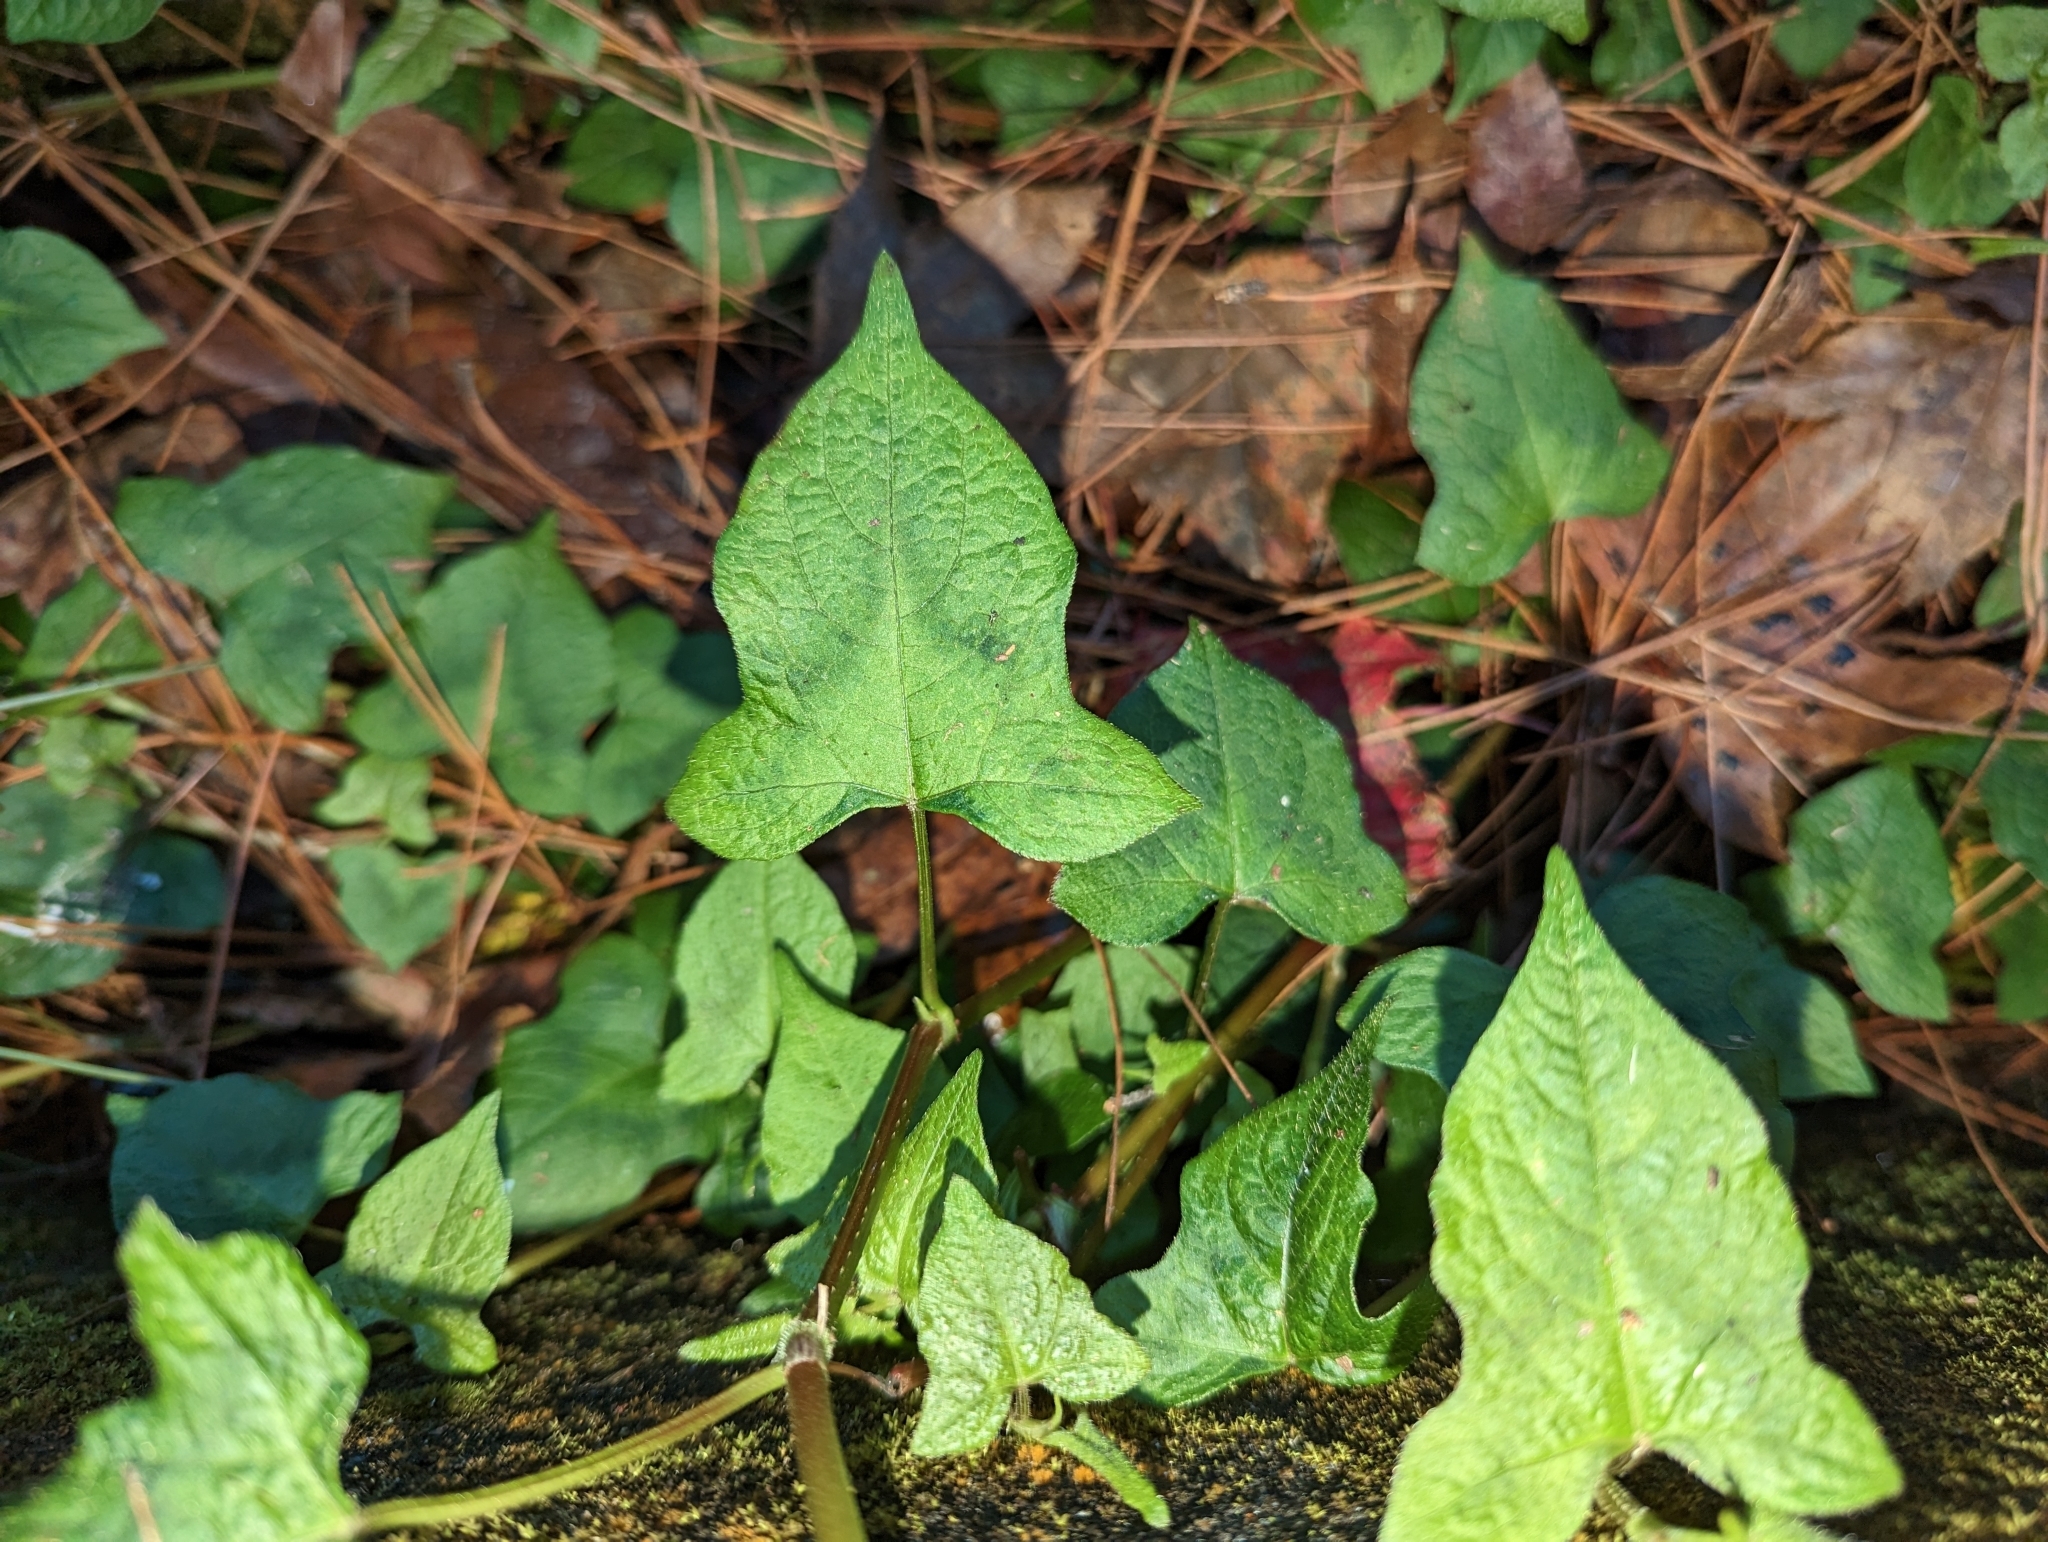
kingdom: Plantae
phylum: Tracheophyta
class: Magnoliopsida
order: Caryophyllales
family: Polygonaceae
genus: Persicaria
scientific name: Persicaria biconvexa
